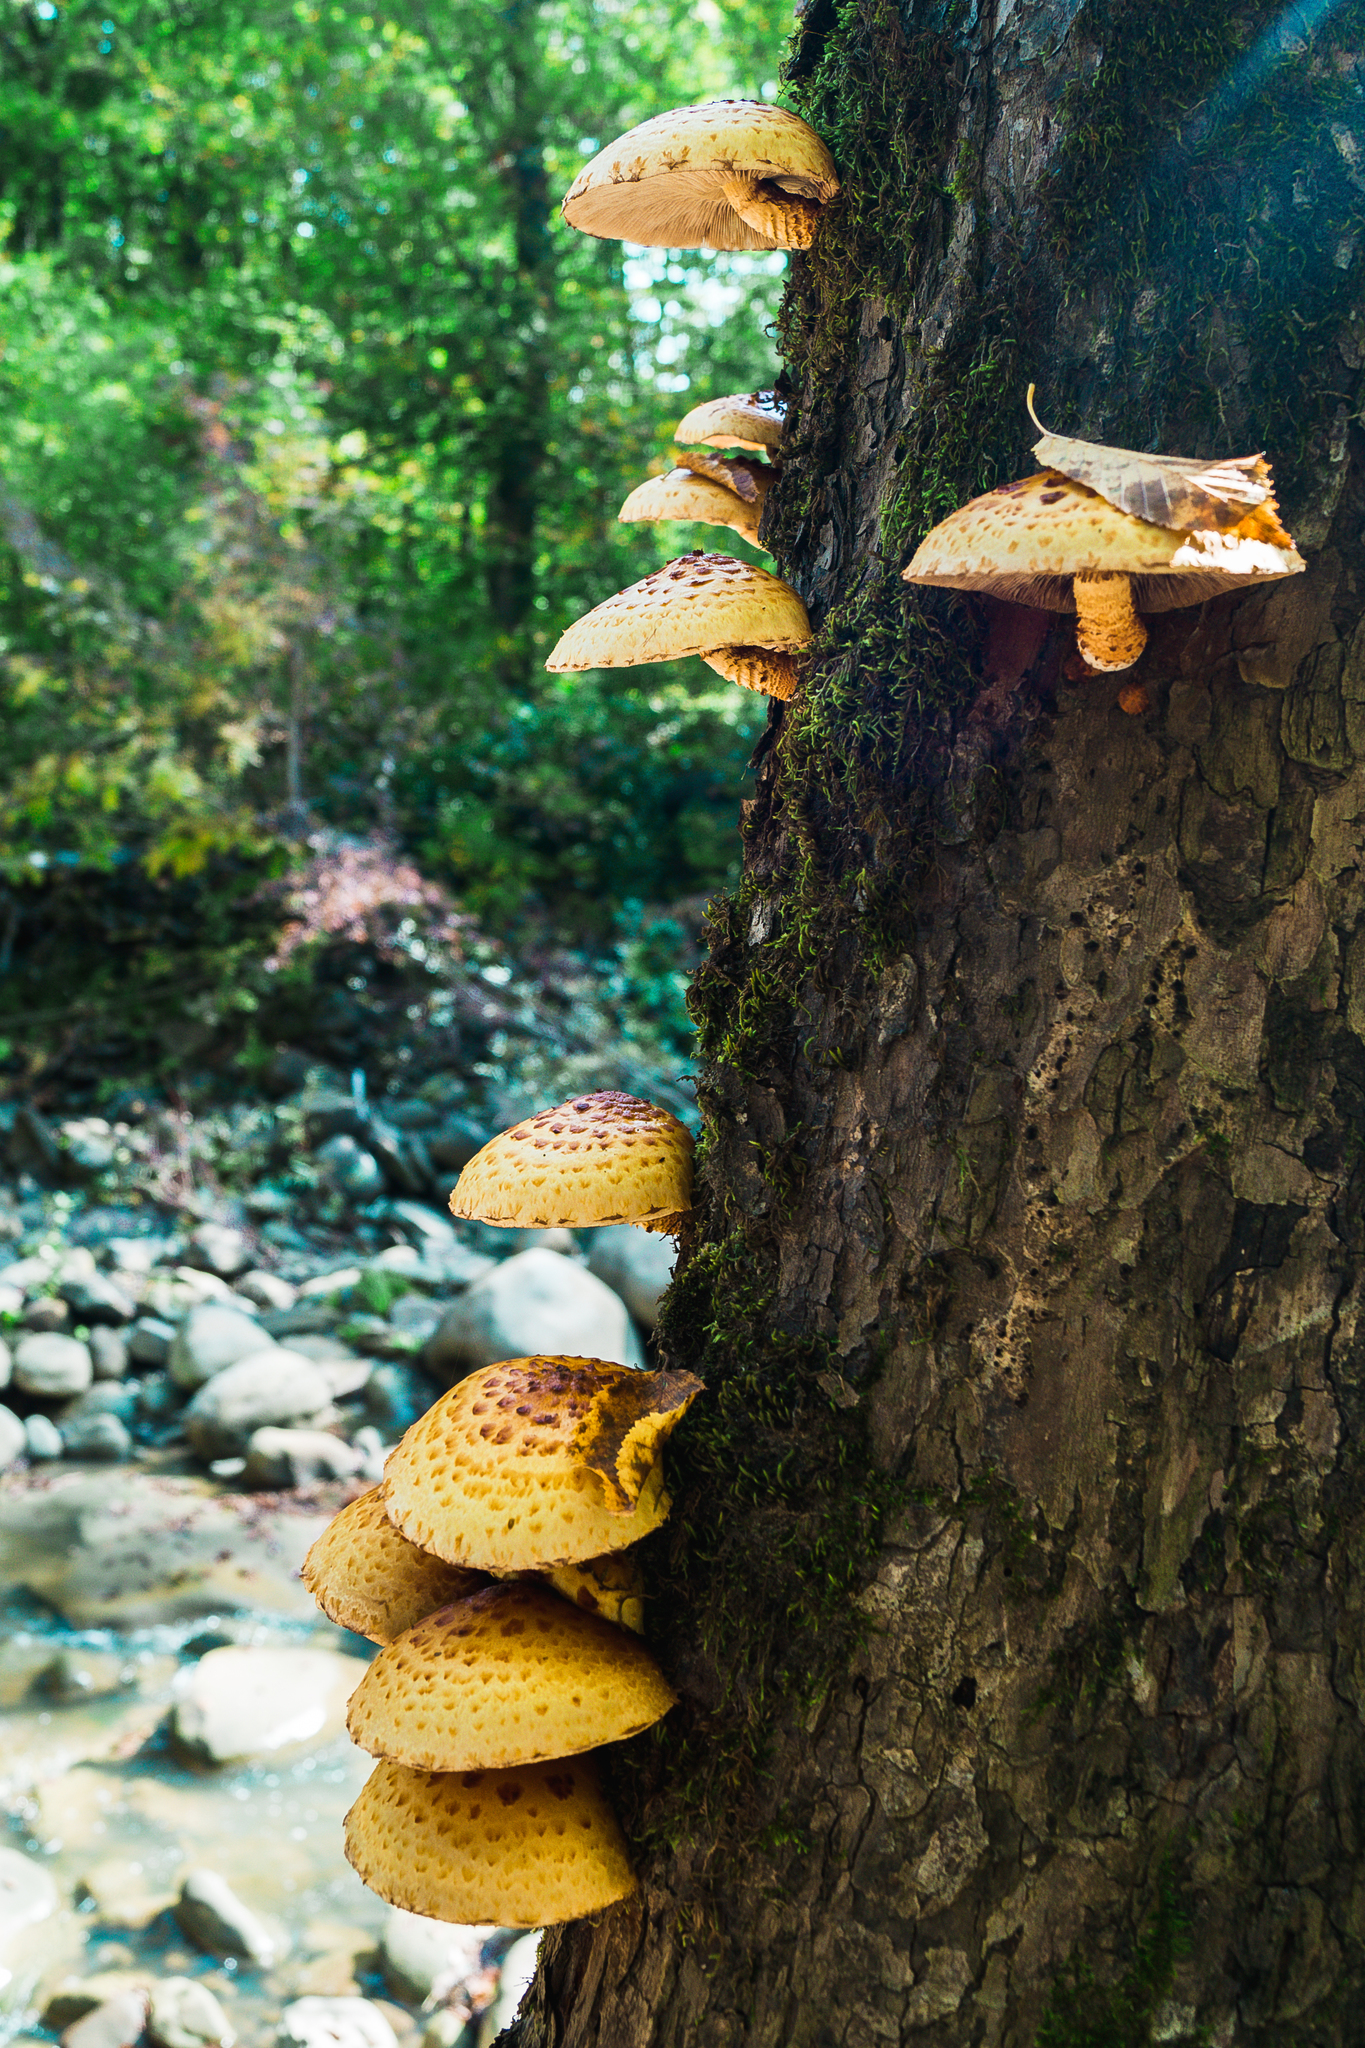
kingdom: Fungi
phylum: Basidiomycota
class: Agaricomycetes
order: Agaricales
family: Strophariaceae
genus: Pholiota
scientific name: Pholiota aurivella
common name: Golden scalycap
